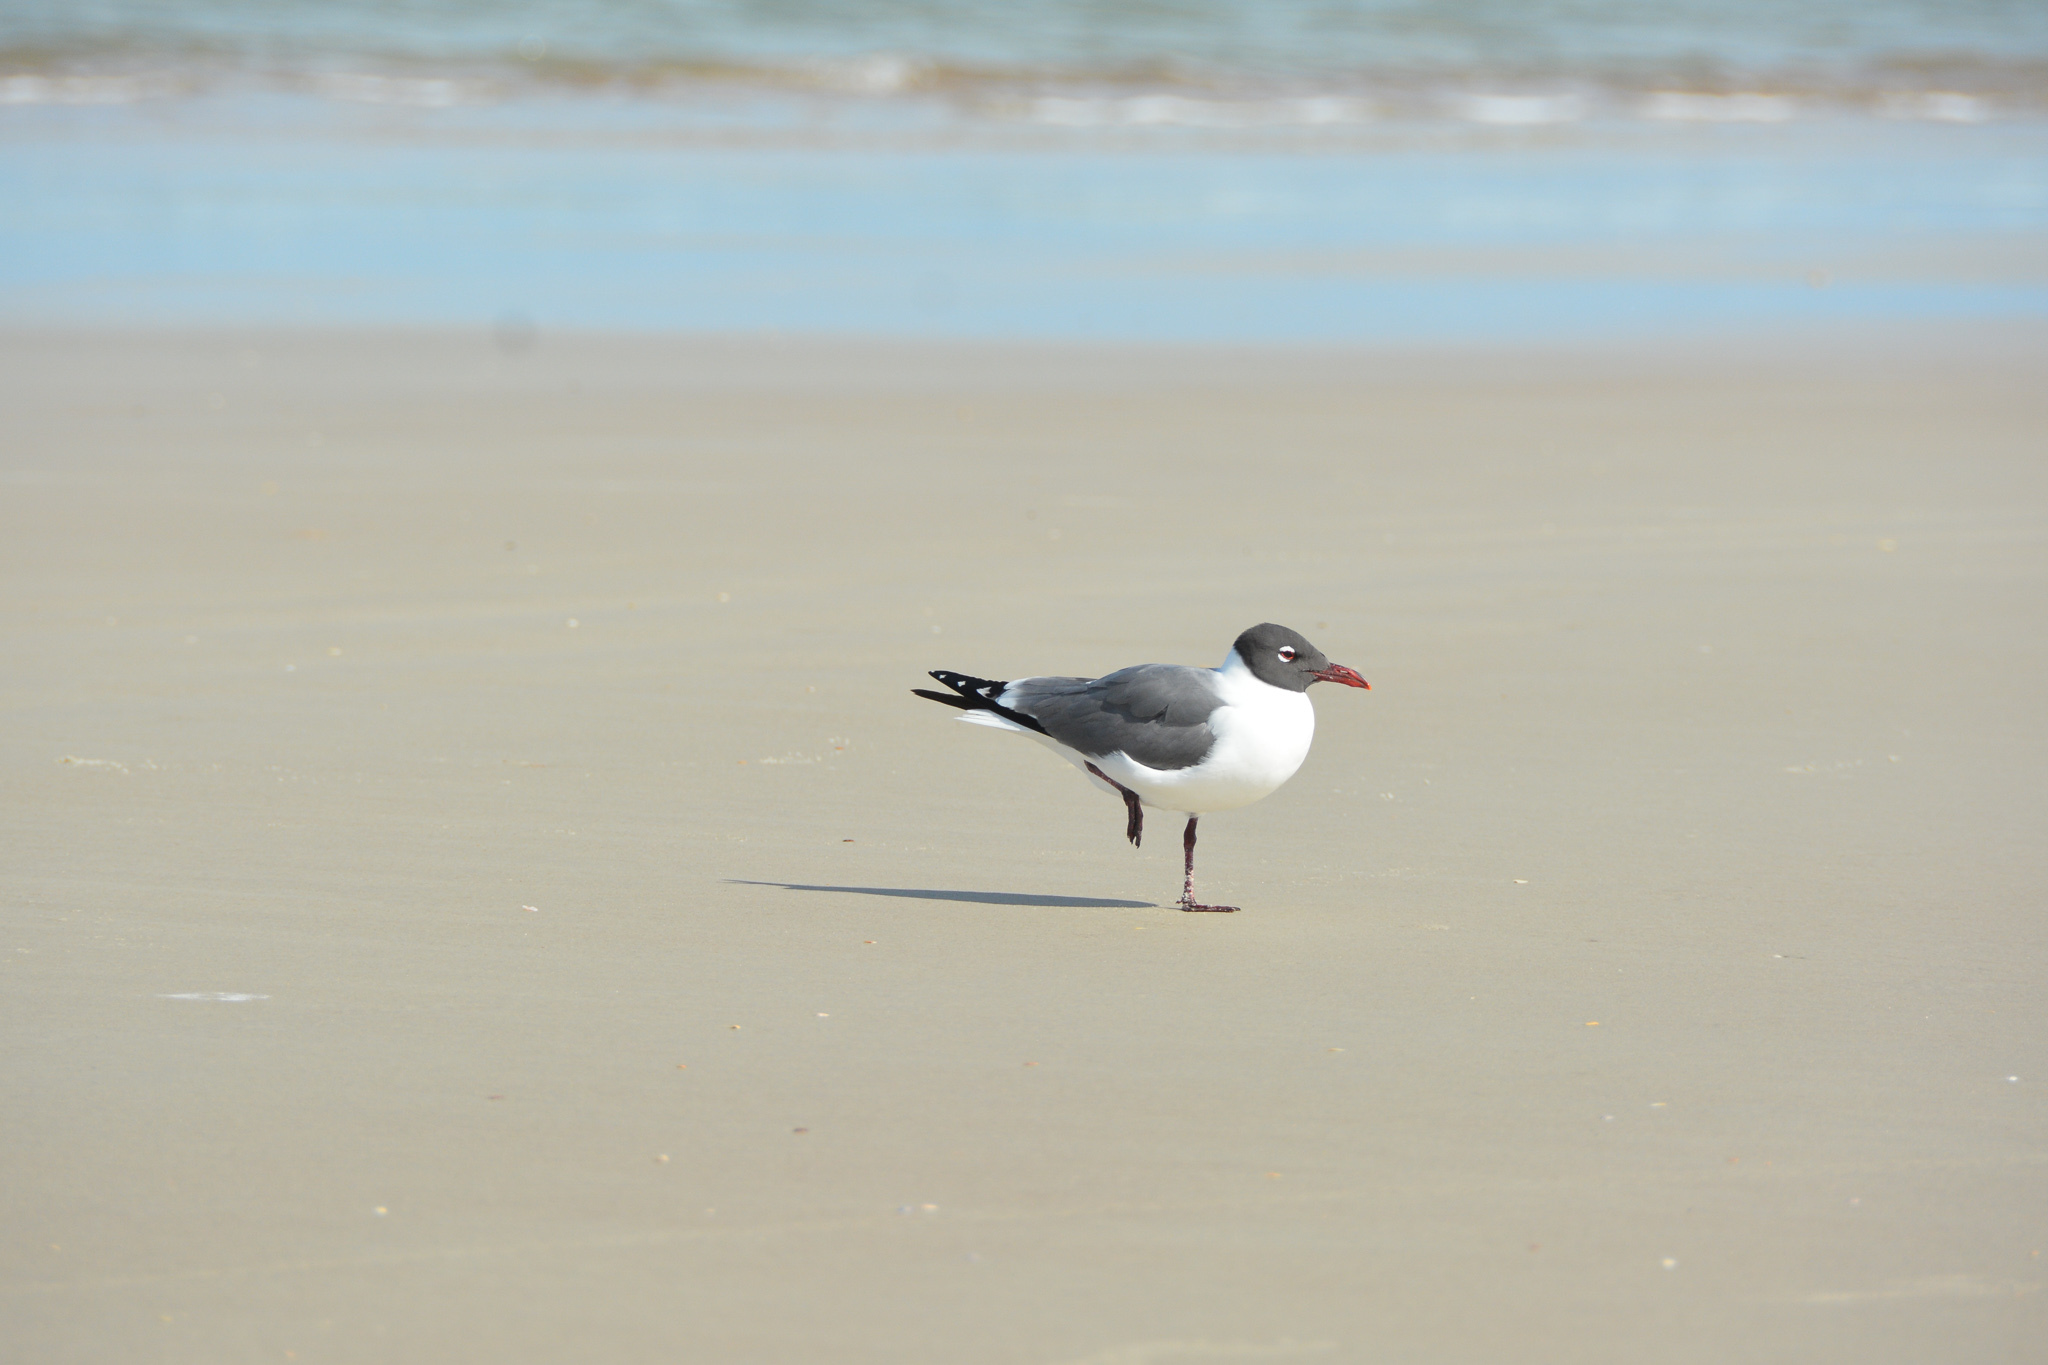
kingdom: Animalia
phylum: Chordata
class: Aves
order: Charadriiformes
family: Laridae
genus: Leucophaeus
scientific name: Leucophaeus atricilla
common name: Laughing gull
